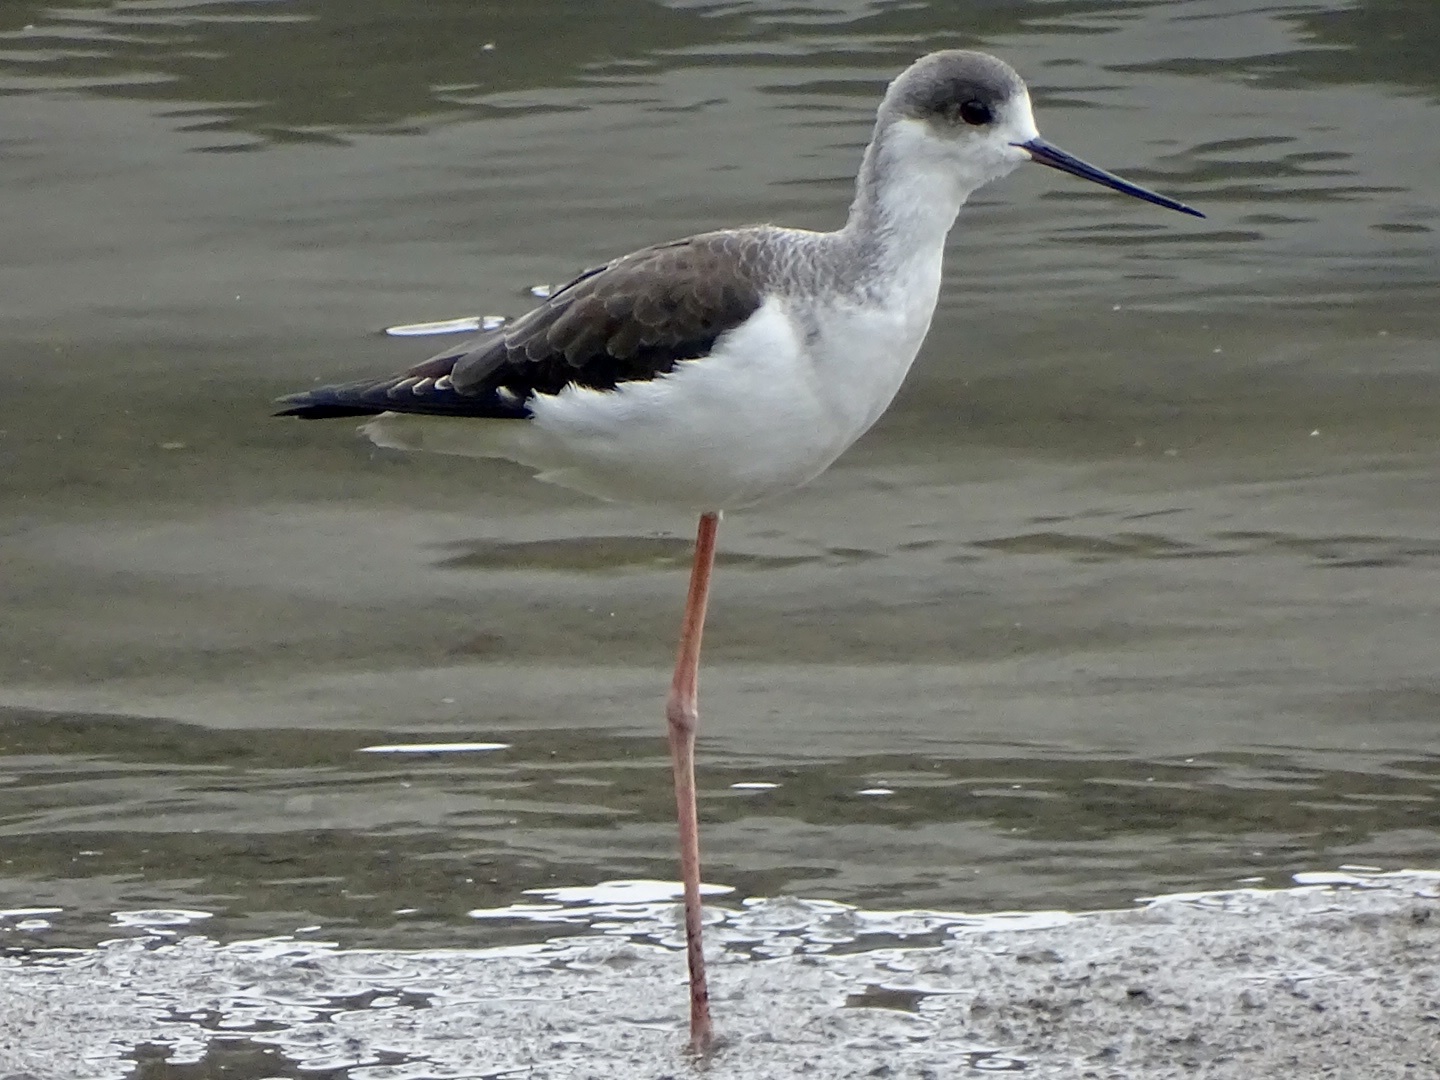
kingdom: Animalia
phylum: Chordata
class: Aves
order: Charadriiformes
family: Recurvirostridae
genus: Himantopus
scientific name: Himantopus himantopus
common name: Black-winged stilt
